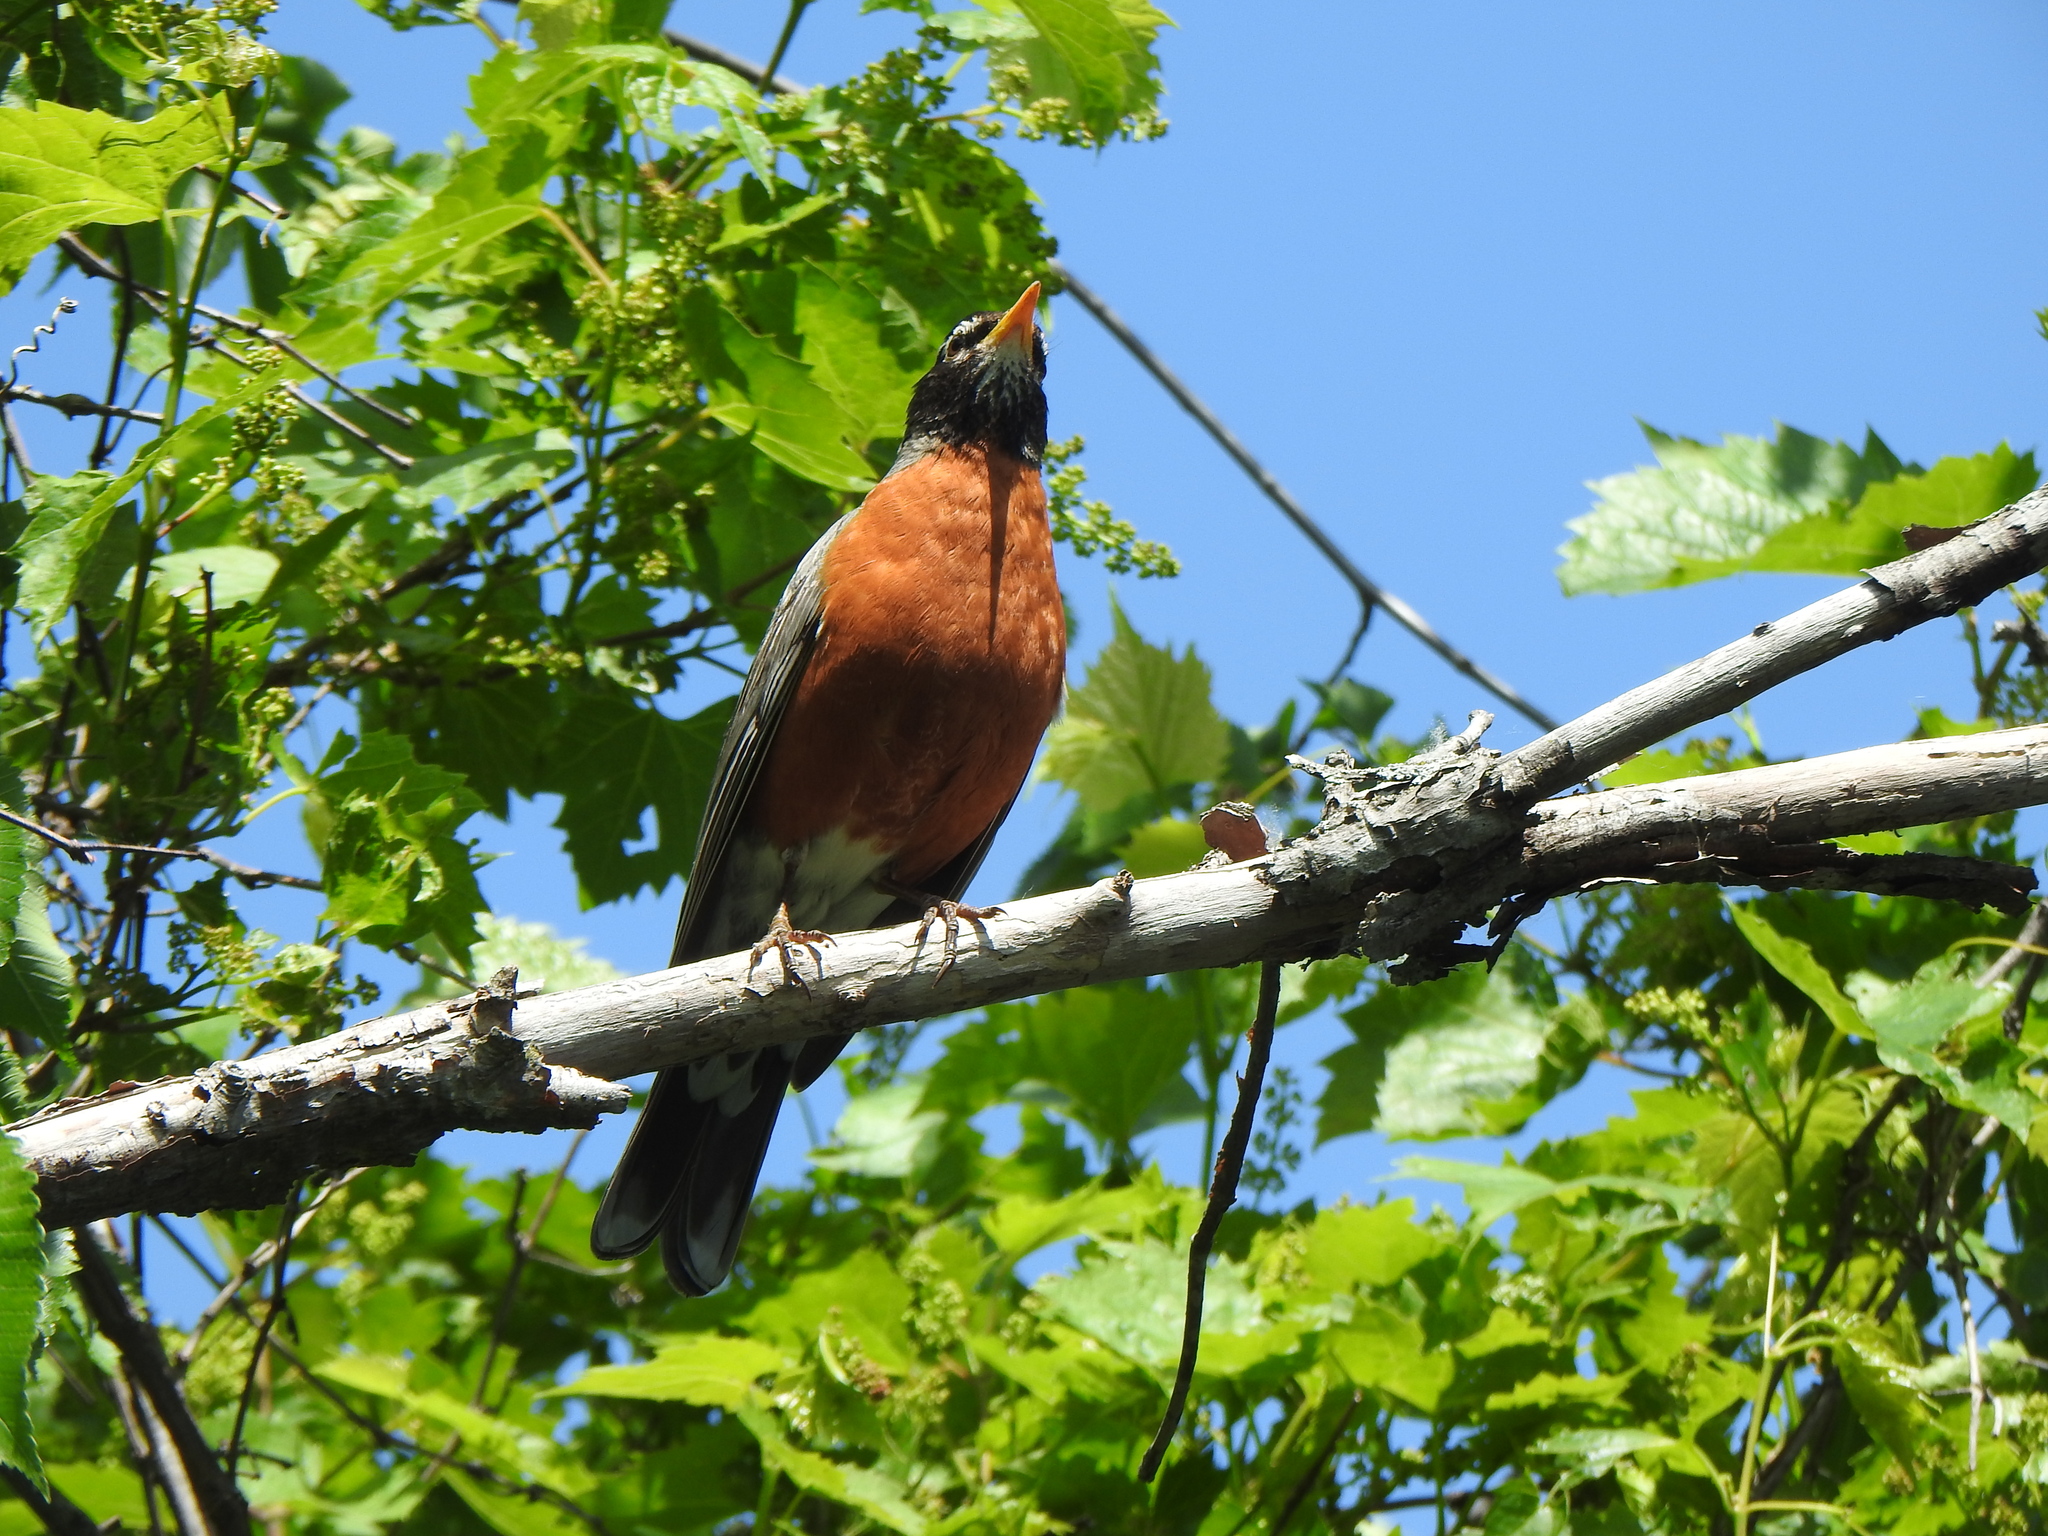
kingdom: Animalia
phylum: Chordata
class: Aves
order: Passeriformes
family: Turdidae
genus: Turdus
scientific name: Turdus migratorius
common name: American robin
